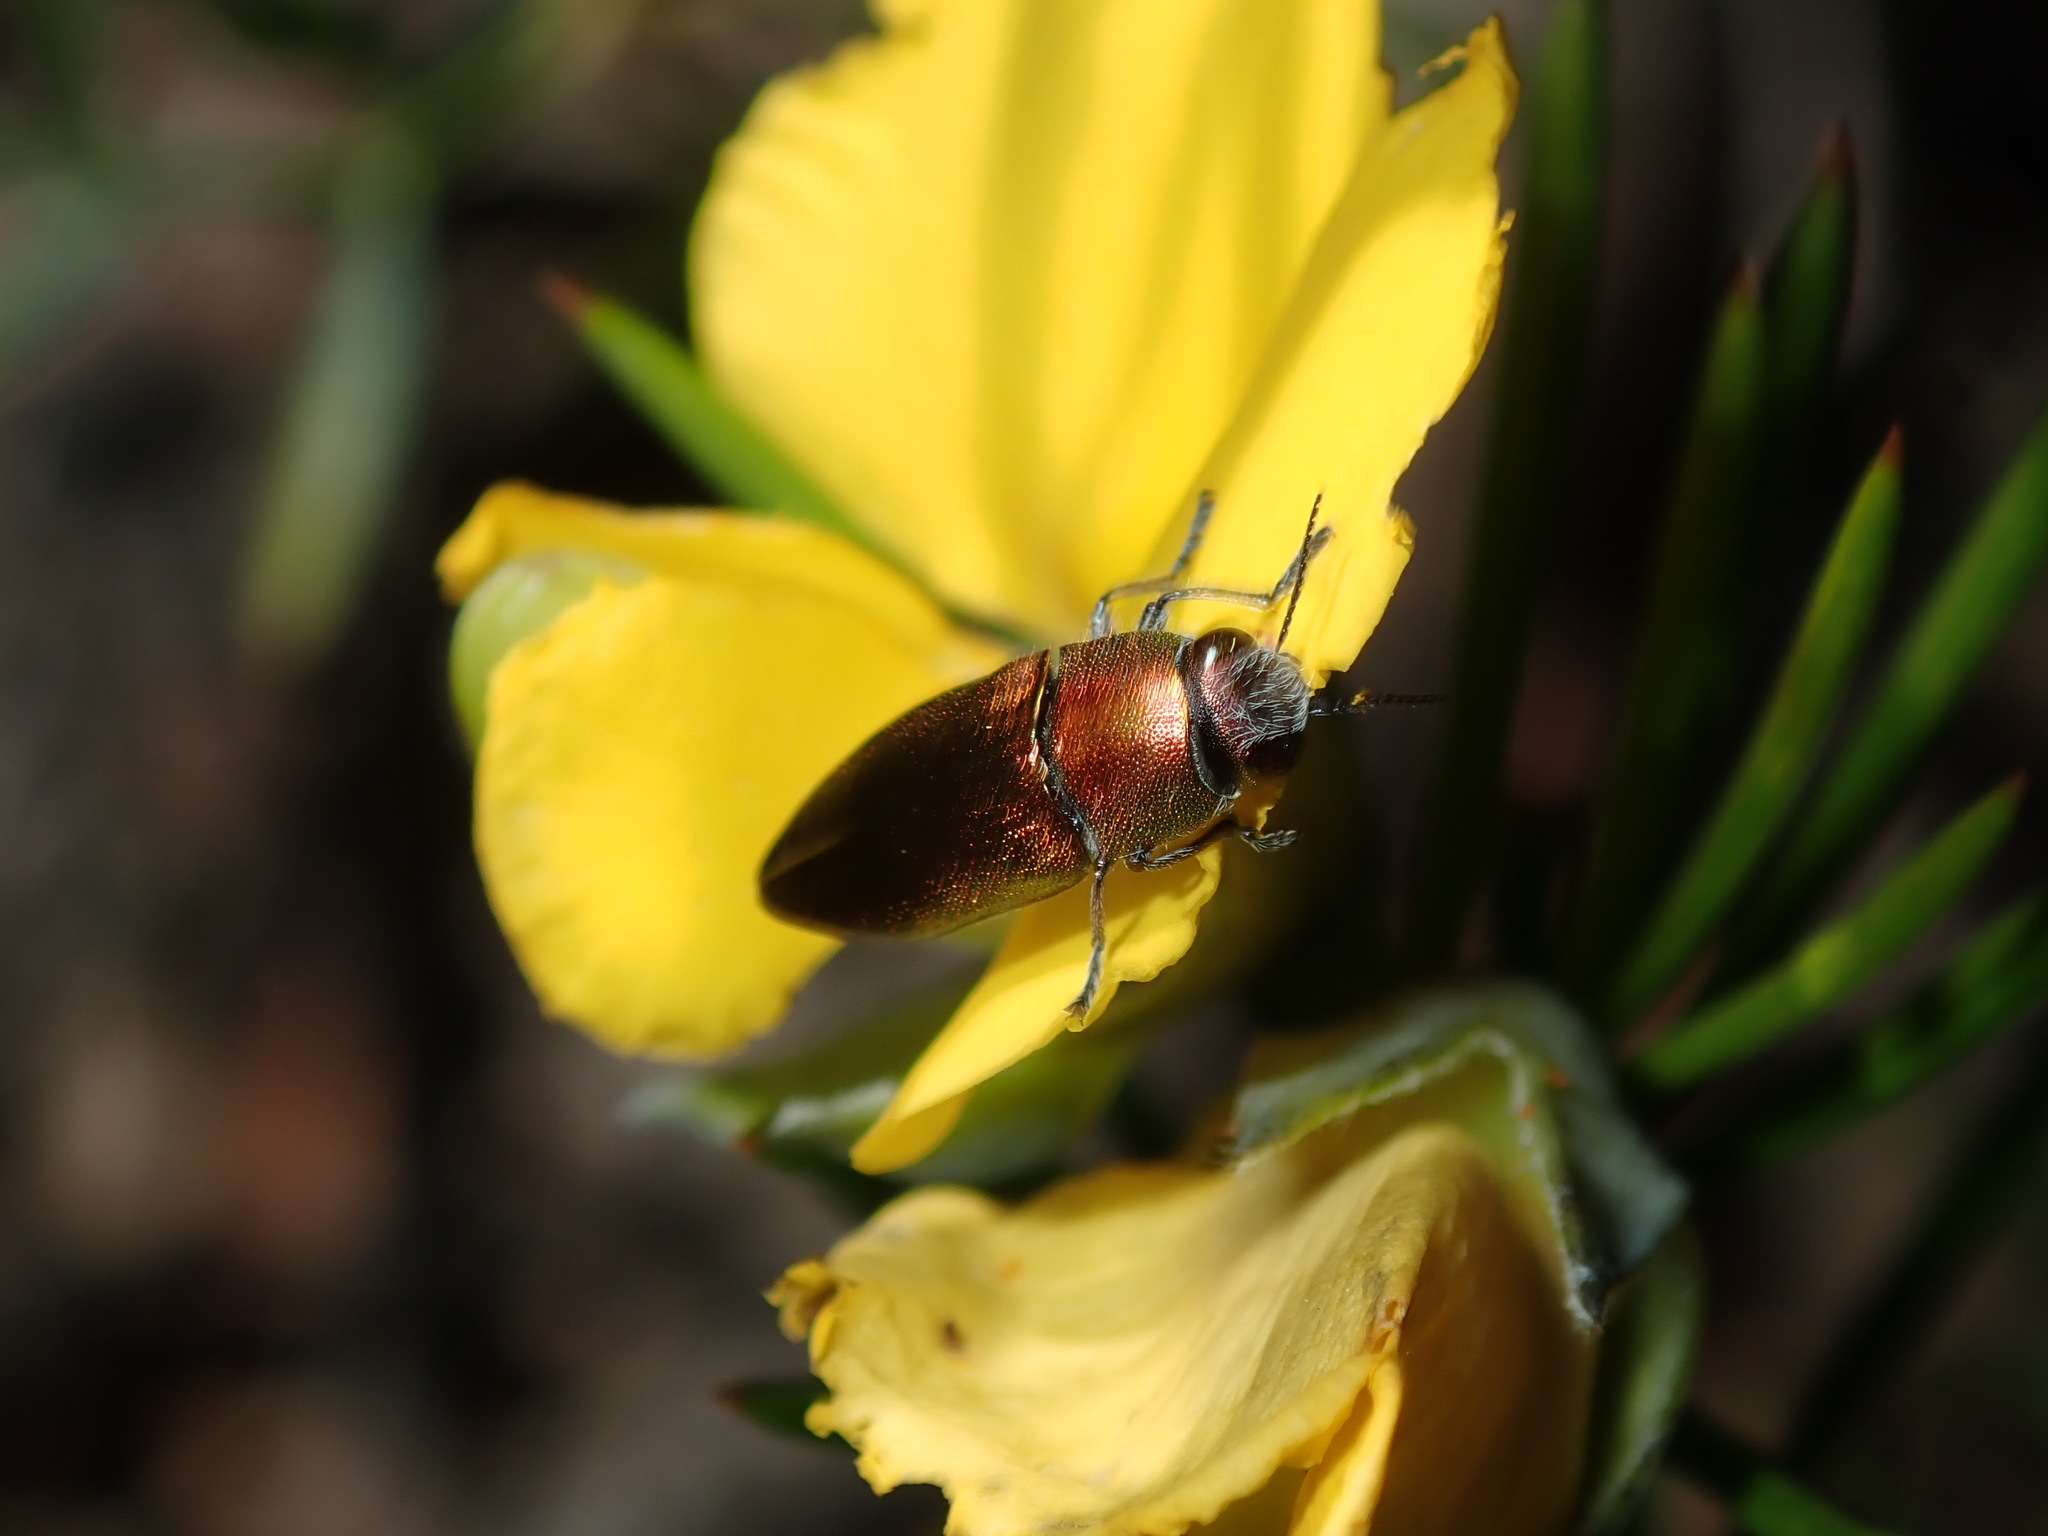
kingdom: Animalia
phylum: Arthropoda
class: Insecta
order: Coleoptera
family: Buprestidae
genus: Melobasis
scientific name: Melobasis propinqua
